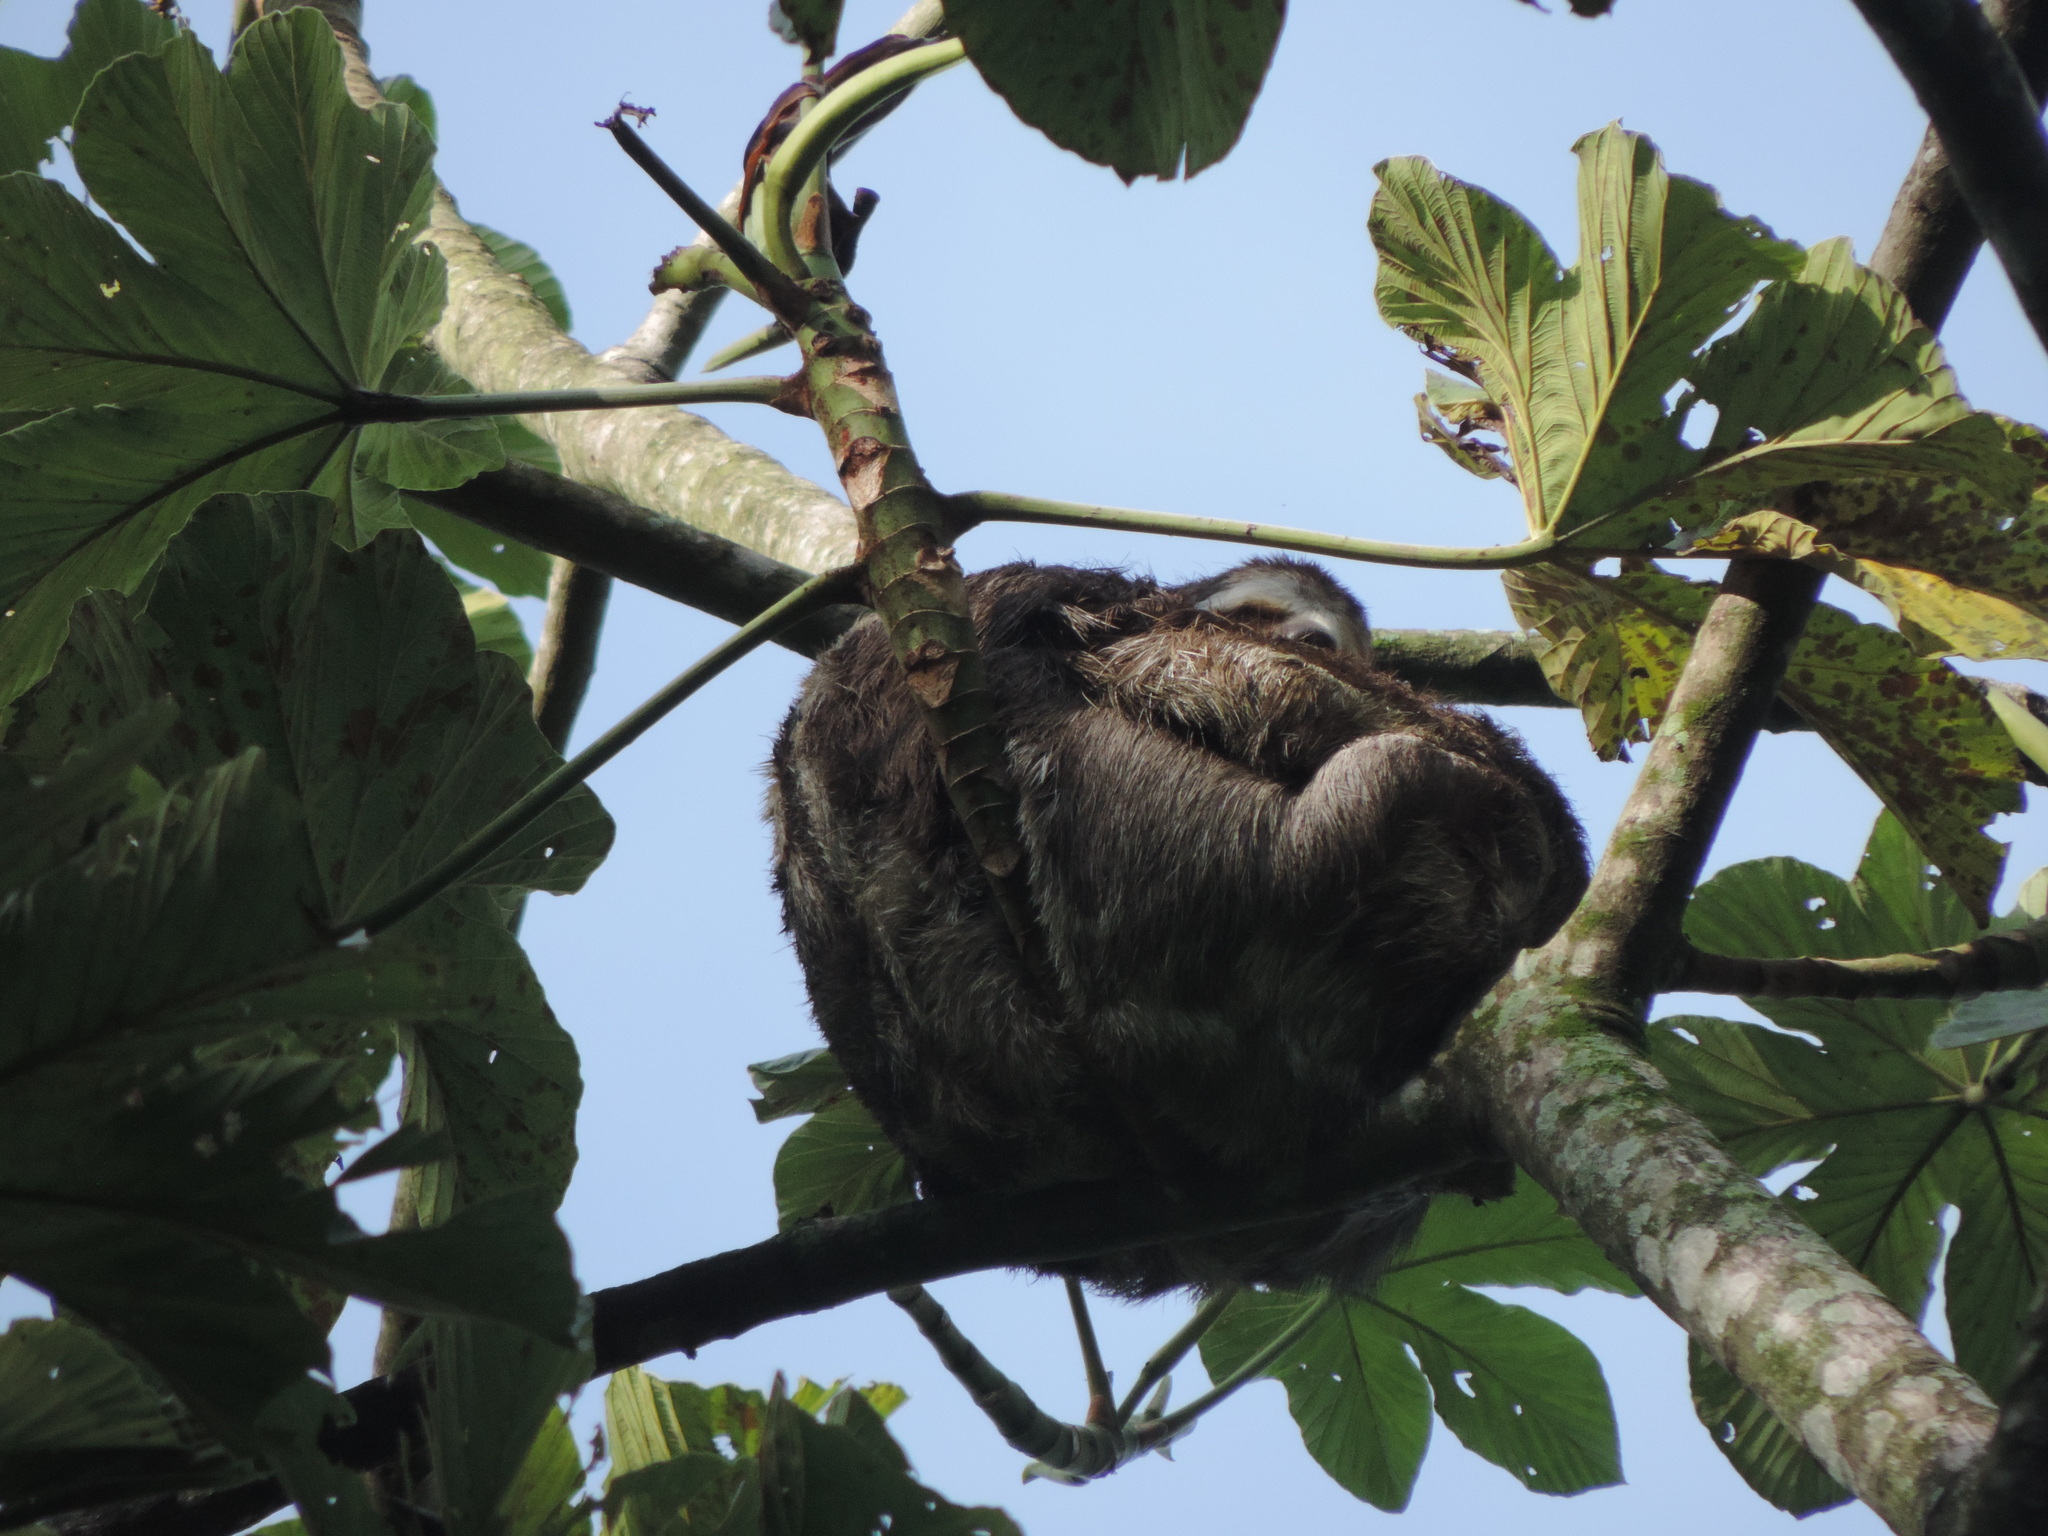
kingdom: Animalia
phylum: Chordata
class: Mammalia
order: Pilosa
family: Bradypodidae
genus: Bradypus
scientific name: Bradypus variegatus
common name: Brown-throated three-toed sloth
